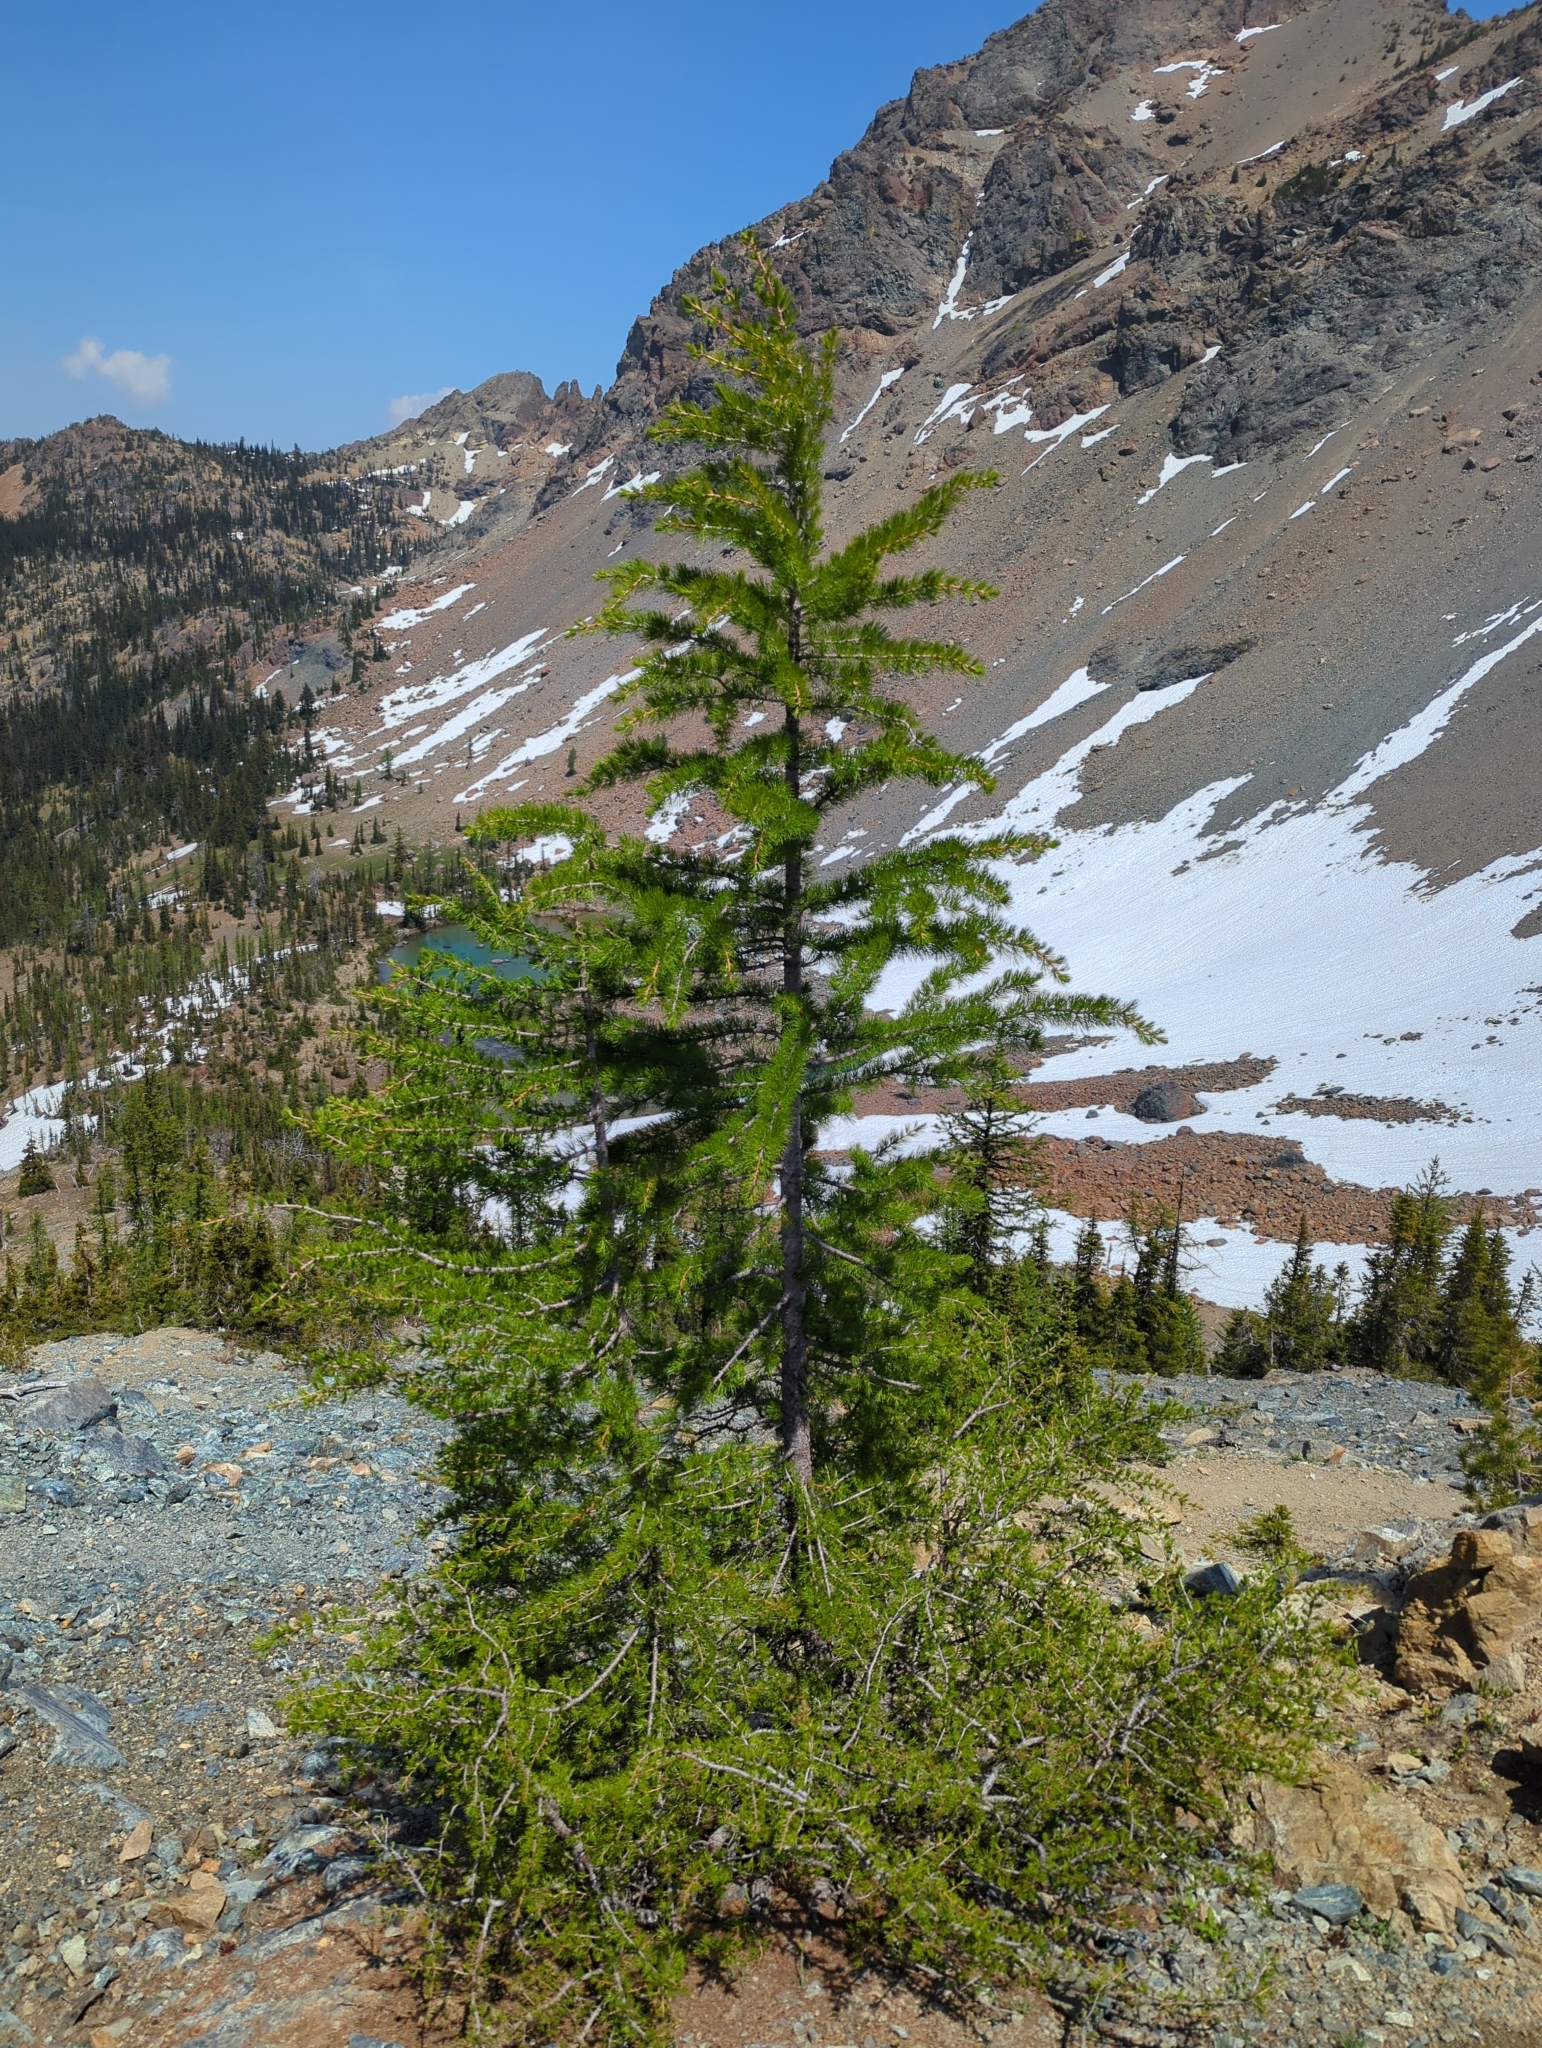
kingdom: Plantae
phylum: Tracheophyta
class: Pinopsida
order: Pinales
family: Pinaceae
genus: Larix
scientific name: Larix lyallii
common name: Alpine larch
